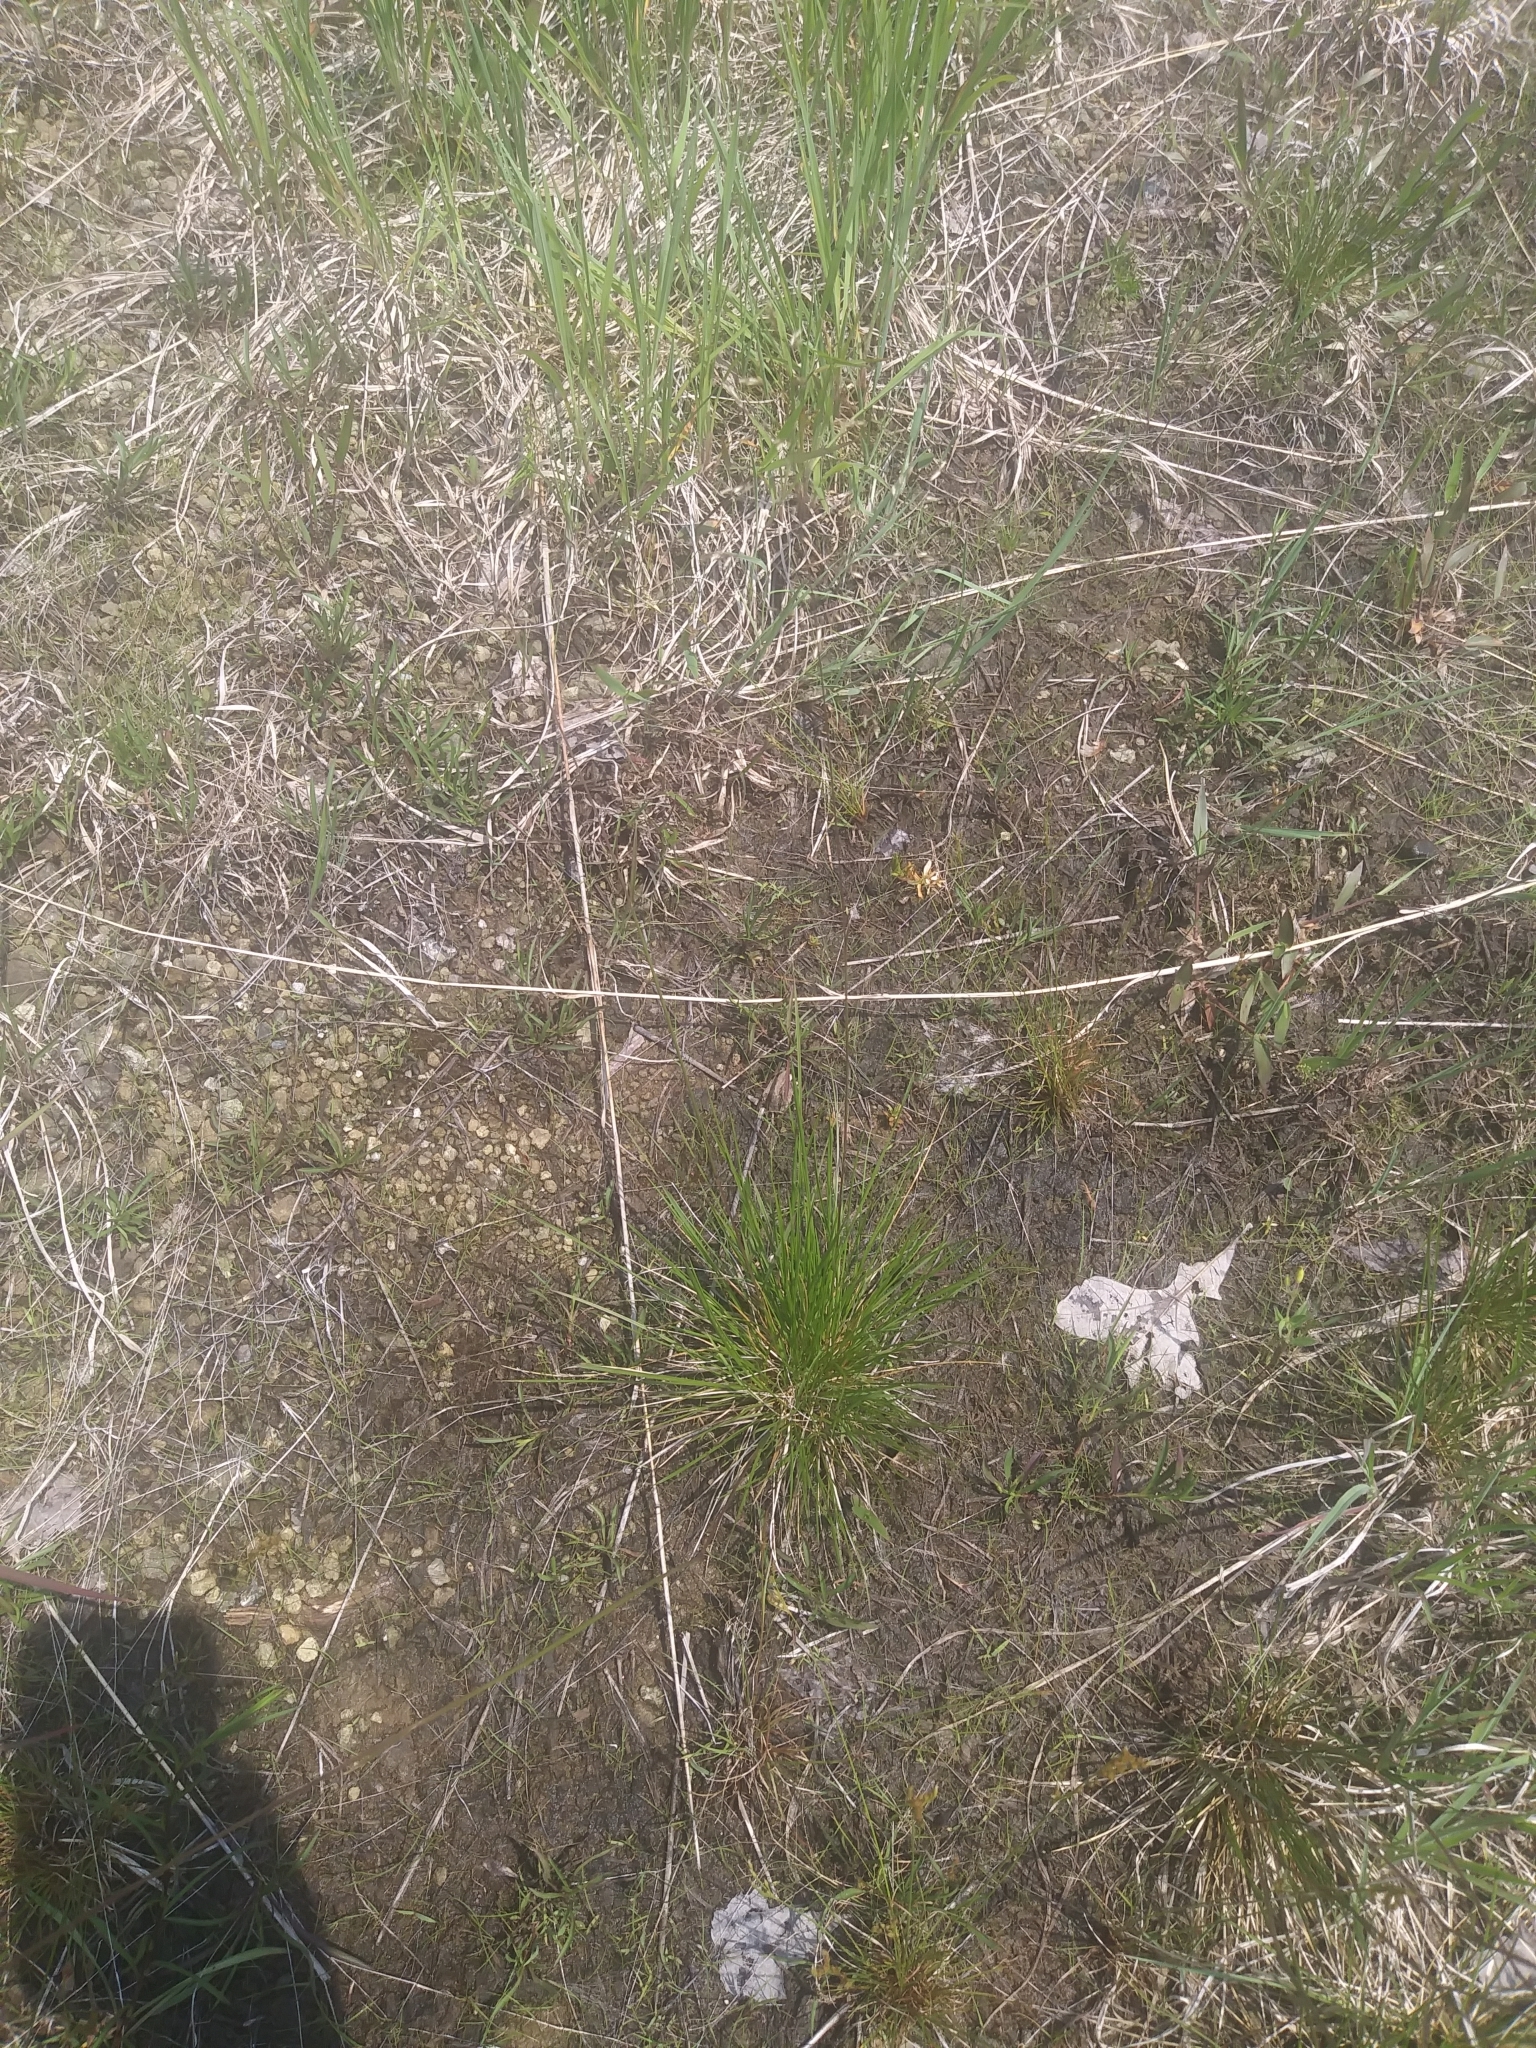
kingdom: Plantae
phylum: Tracheophyta
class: Liliopsida
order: Poales
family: Poaceae
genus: Deschampsia
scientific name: Deschampsia cespitosa
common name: Tufted hair-grass
